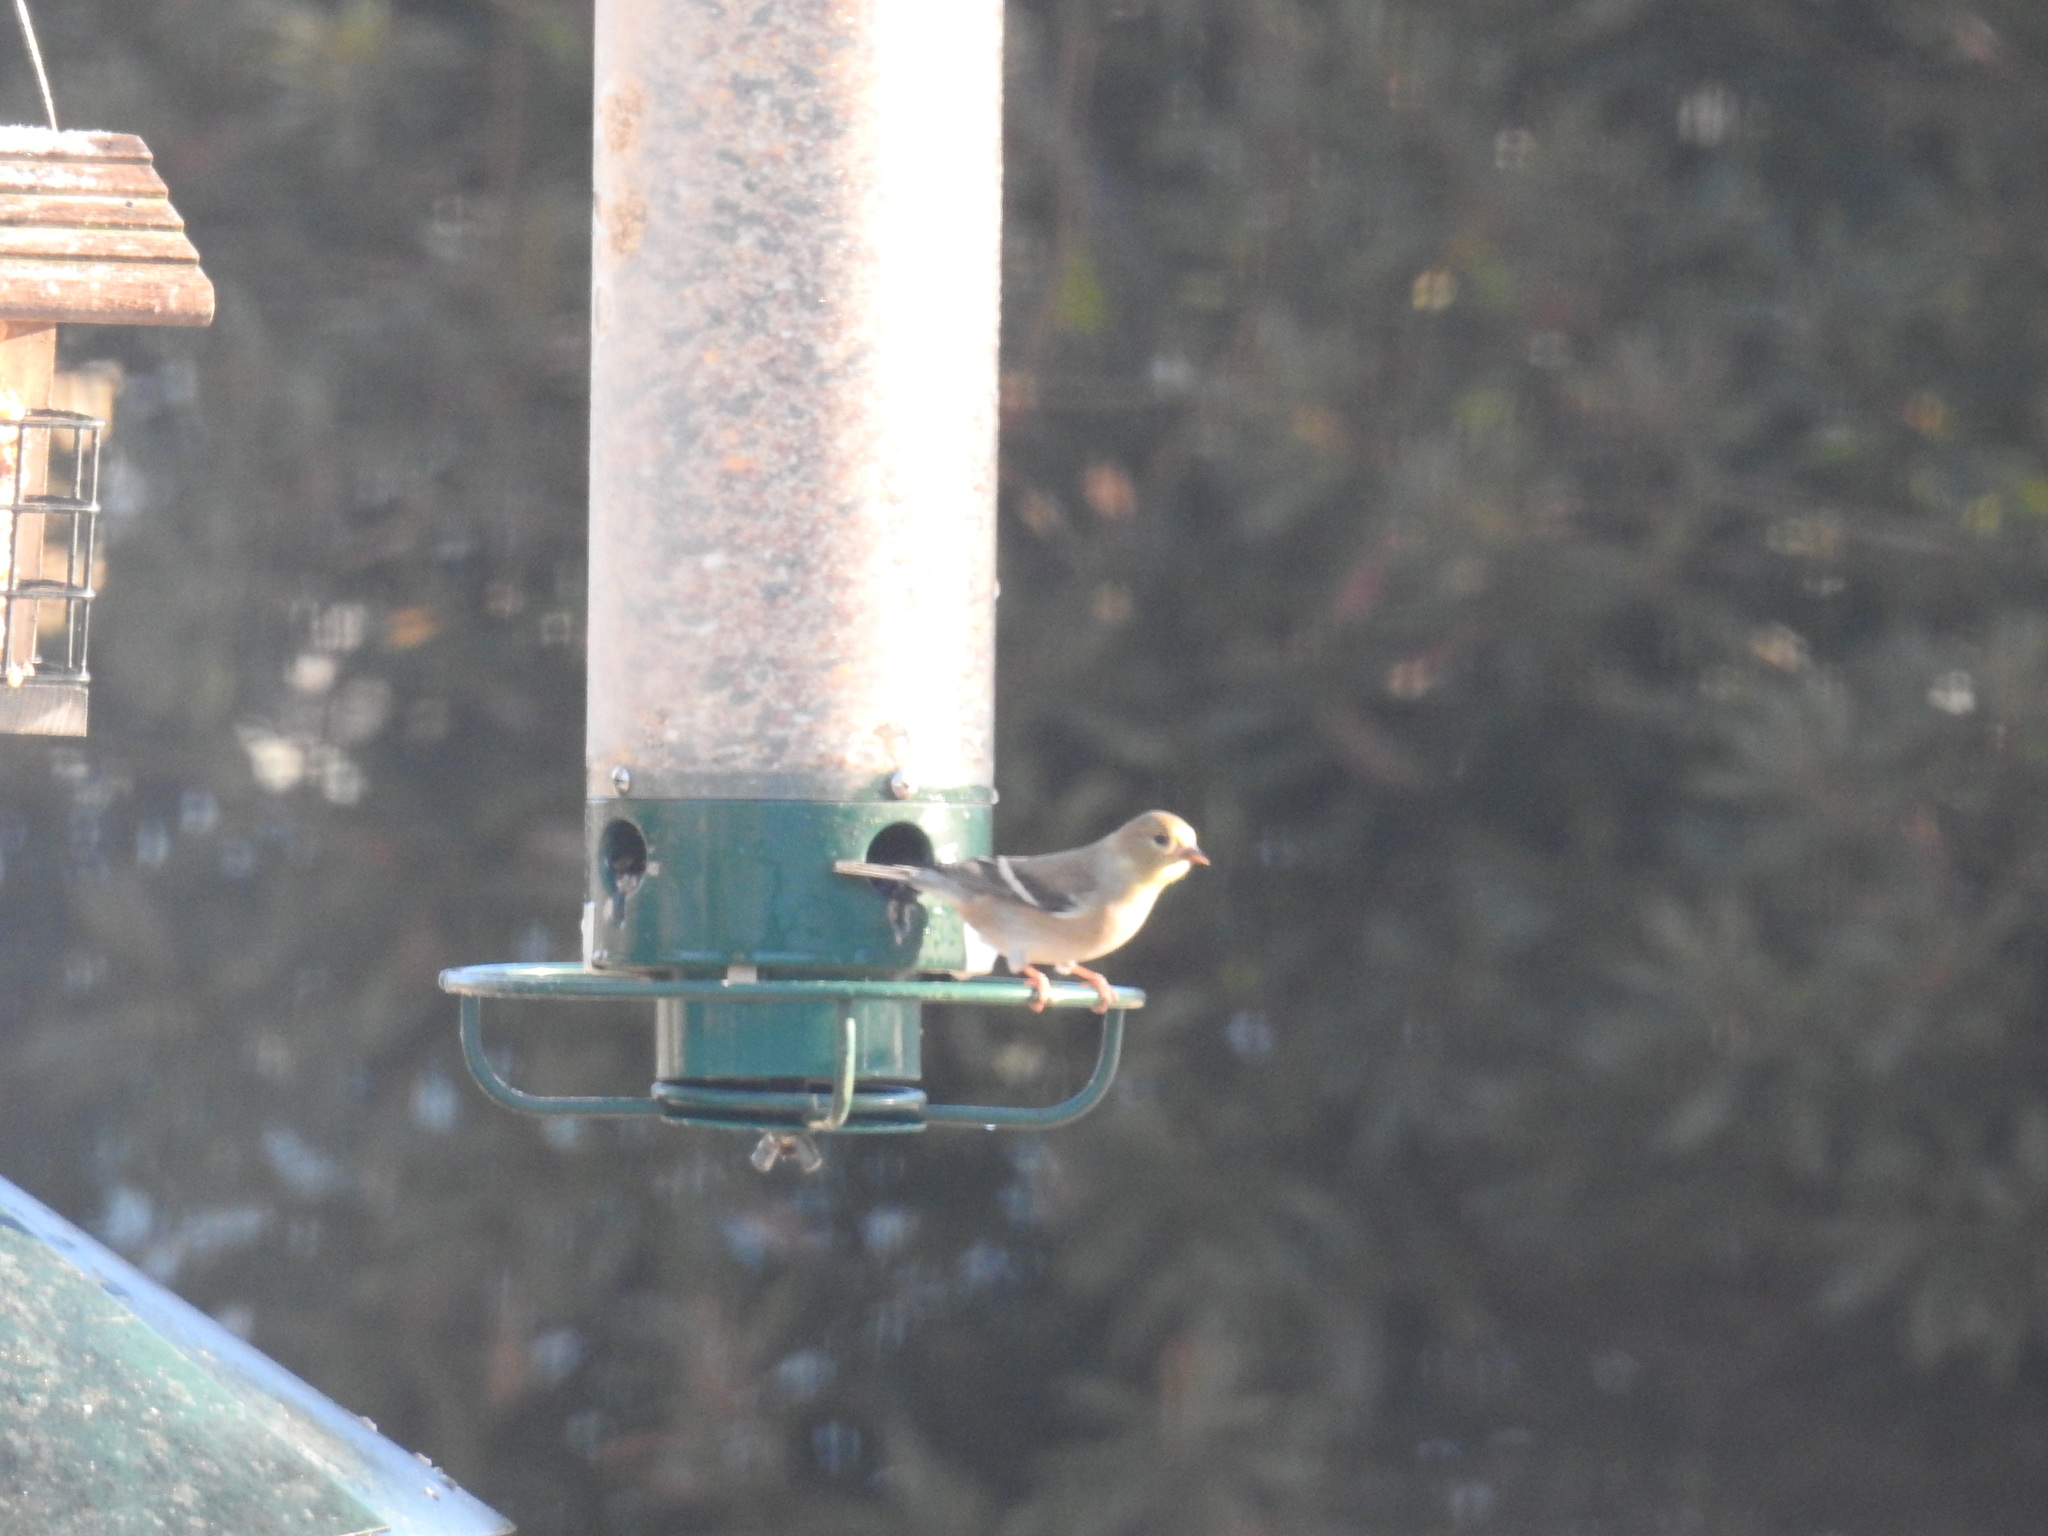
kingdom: Animalia
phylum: Chordata
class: Aves
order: Passeriformes
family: Fringillidae
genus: Spinus
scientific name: Spinus tristis
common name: American goldfinch
